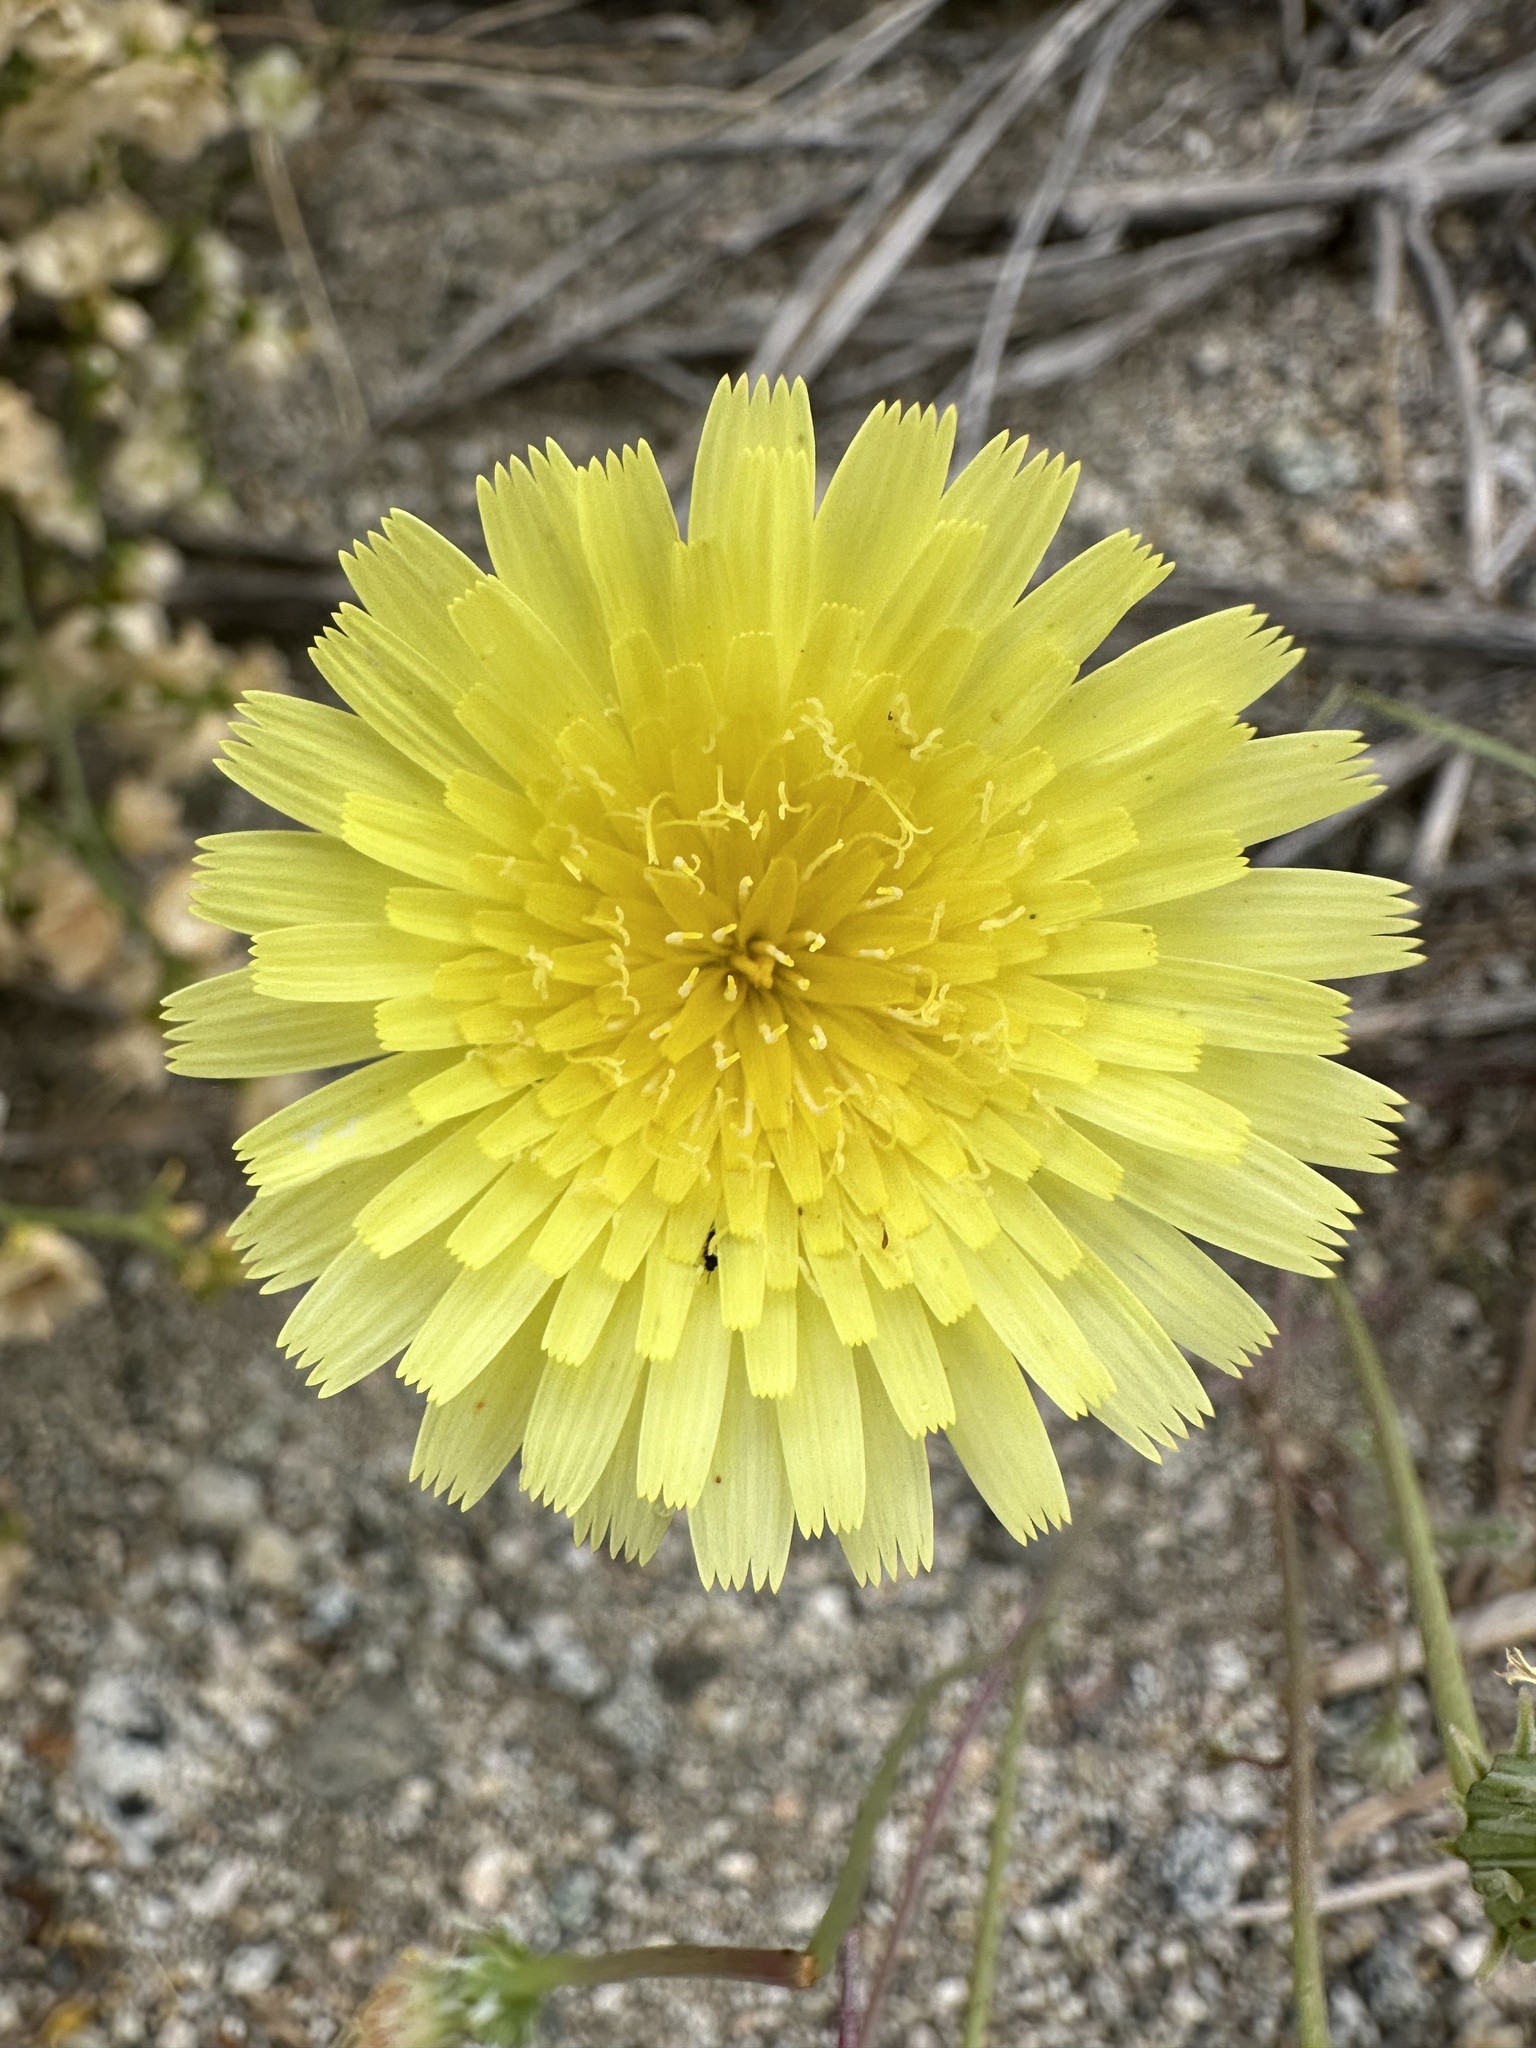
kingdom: Plantae
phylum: Tracheophyta
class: Magnoliopsida
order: Asterales
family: Asteraceae
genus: Malacothrix
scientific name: Malacothrix glabrata
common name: Smooth desert-dandelion
